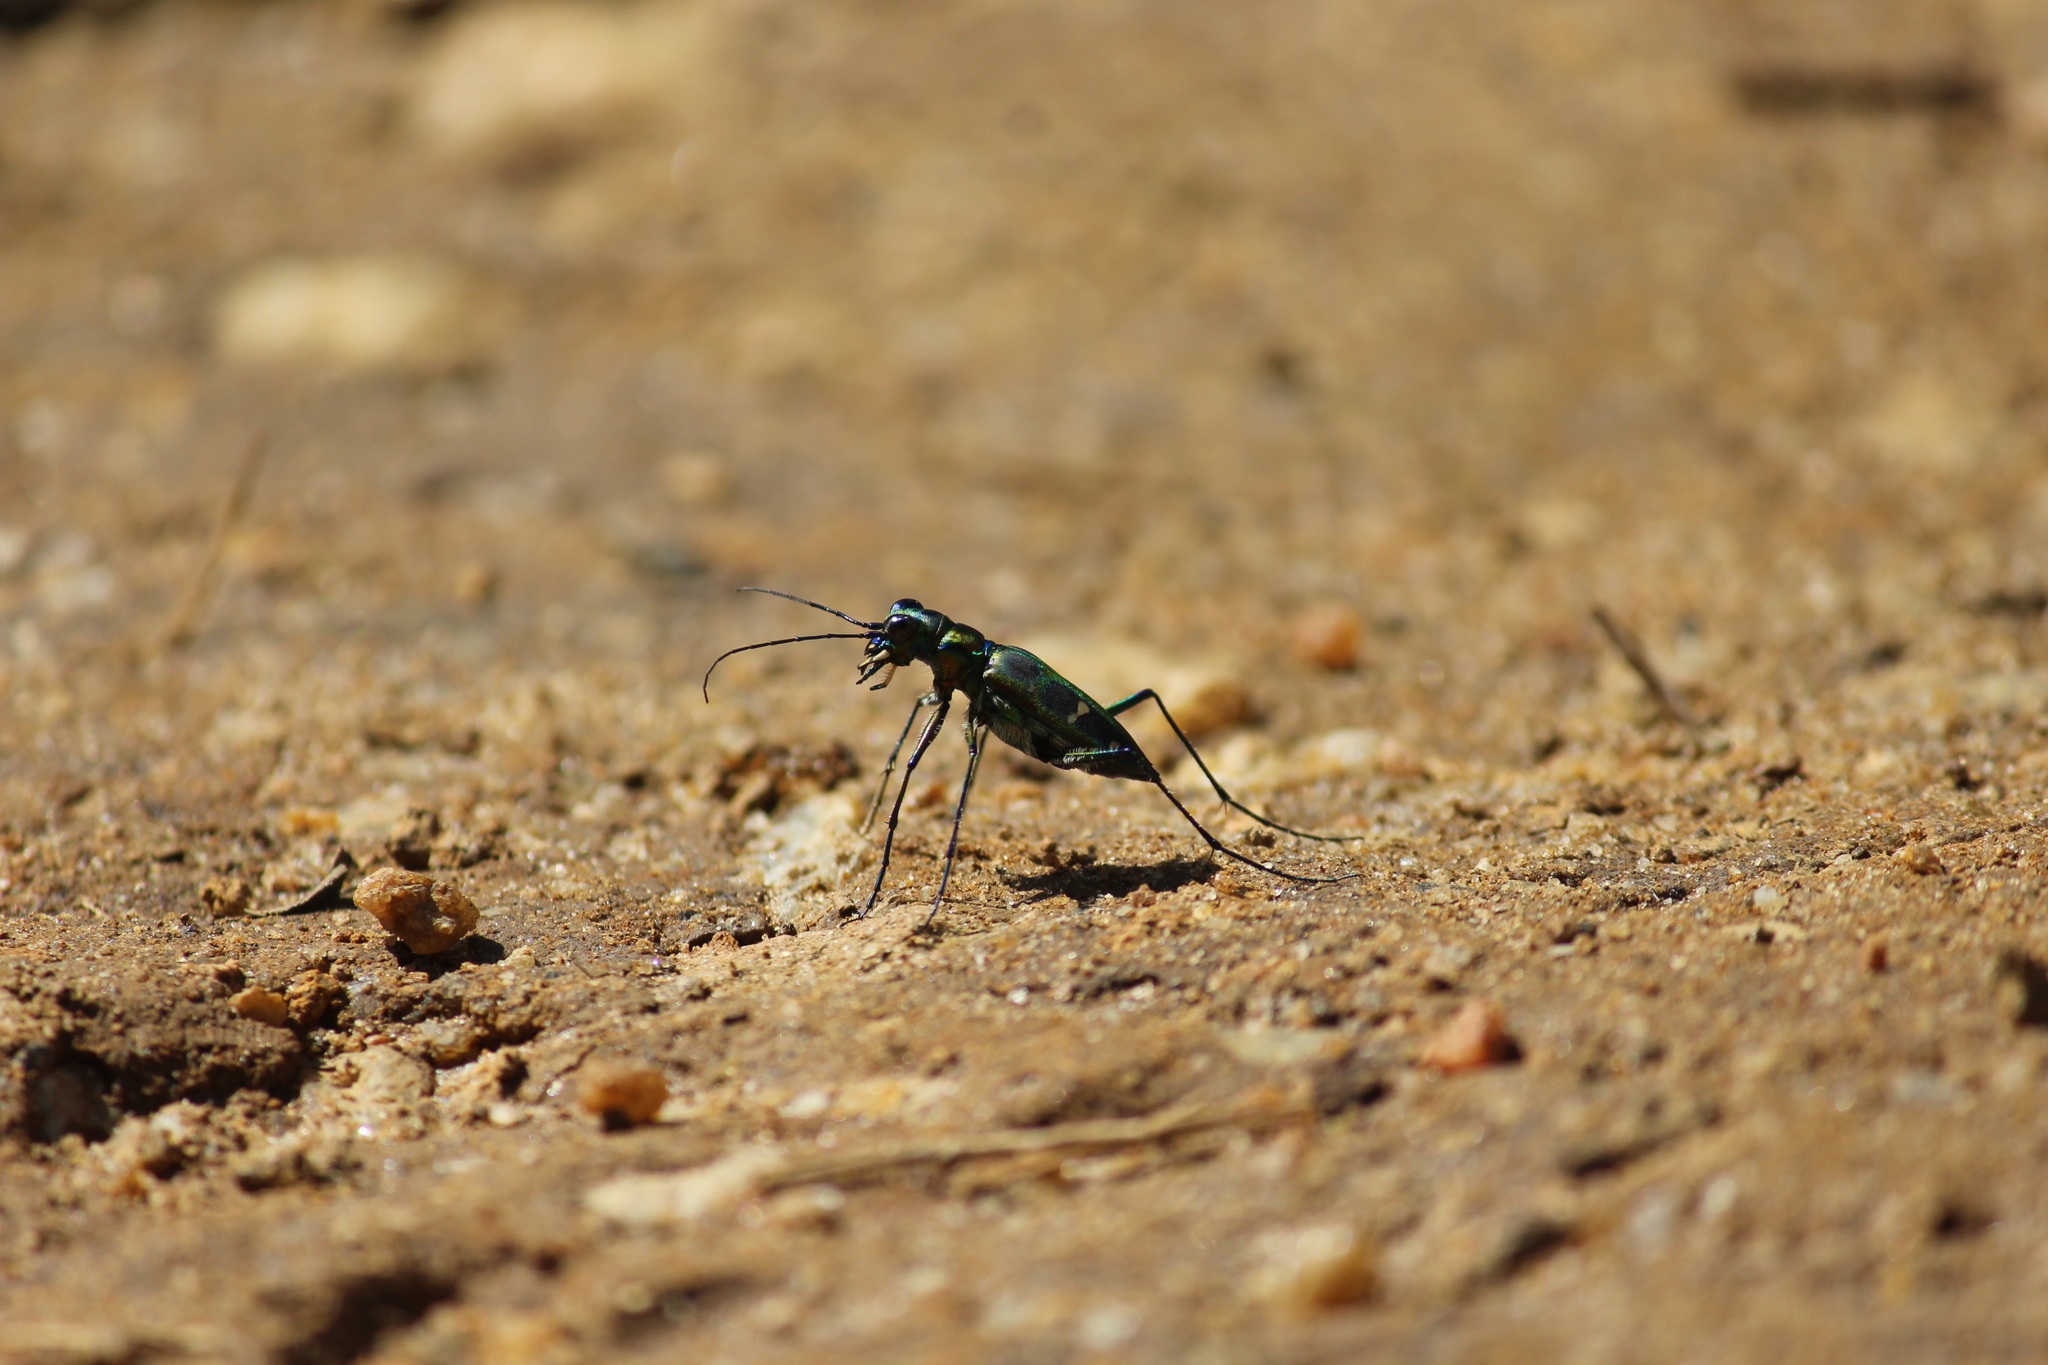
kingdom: Animalia
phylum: Arthropoda
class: Insecta
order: Coleoptera
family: Carabidae
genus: Cicindela
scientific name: Cicindela barmanica
